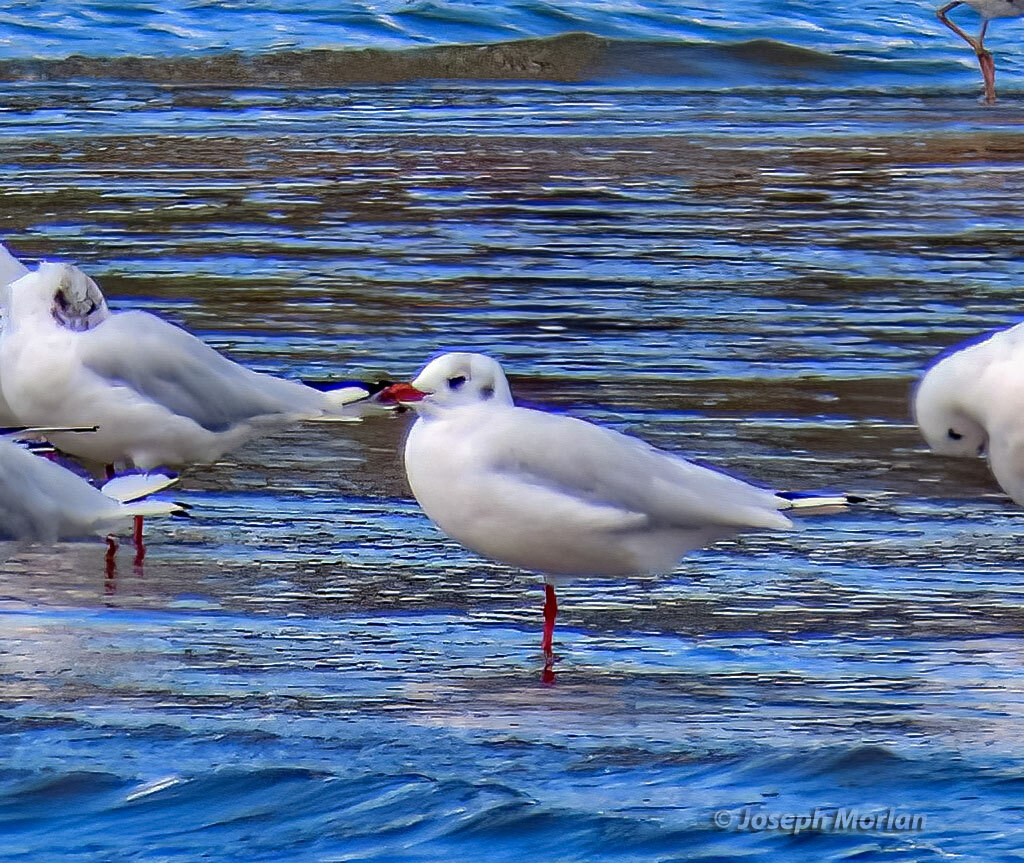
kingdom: Animalia
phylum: Chordata
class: Aves
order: Charadriiformes
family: Laridae
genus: Chroicocephalus
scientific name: Chroicocephalus maculipennis
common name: Brown-hooded gull
